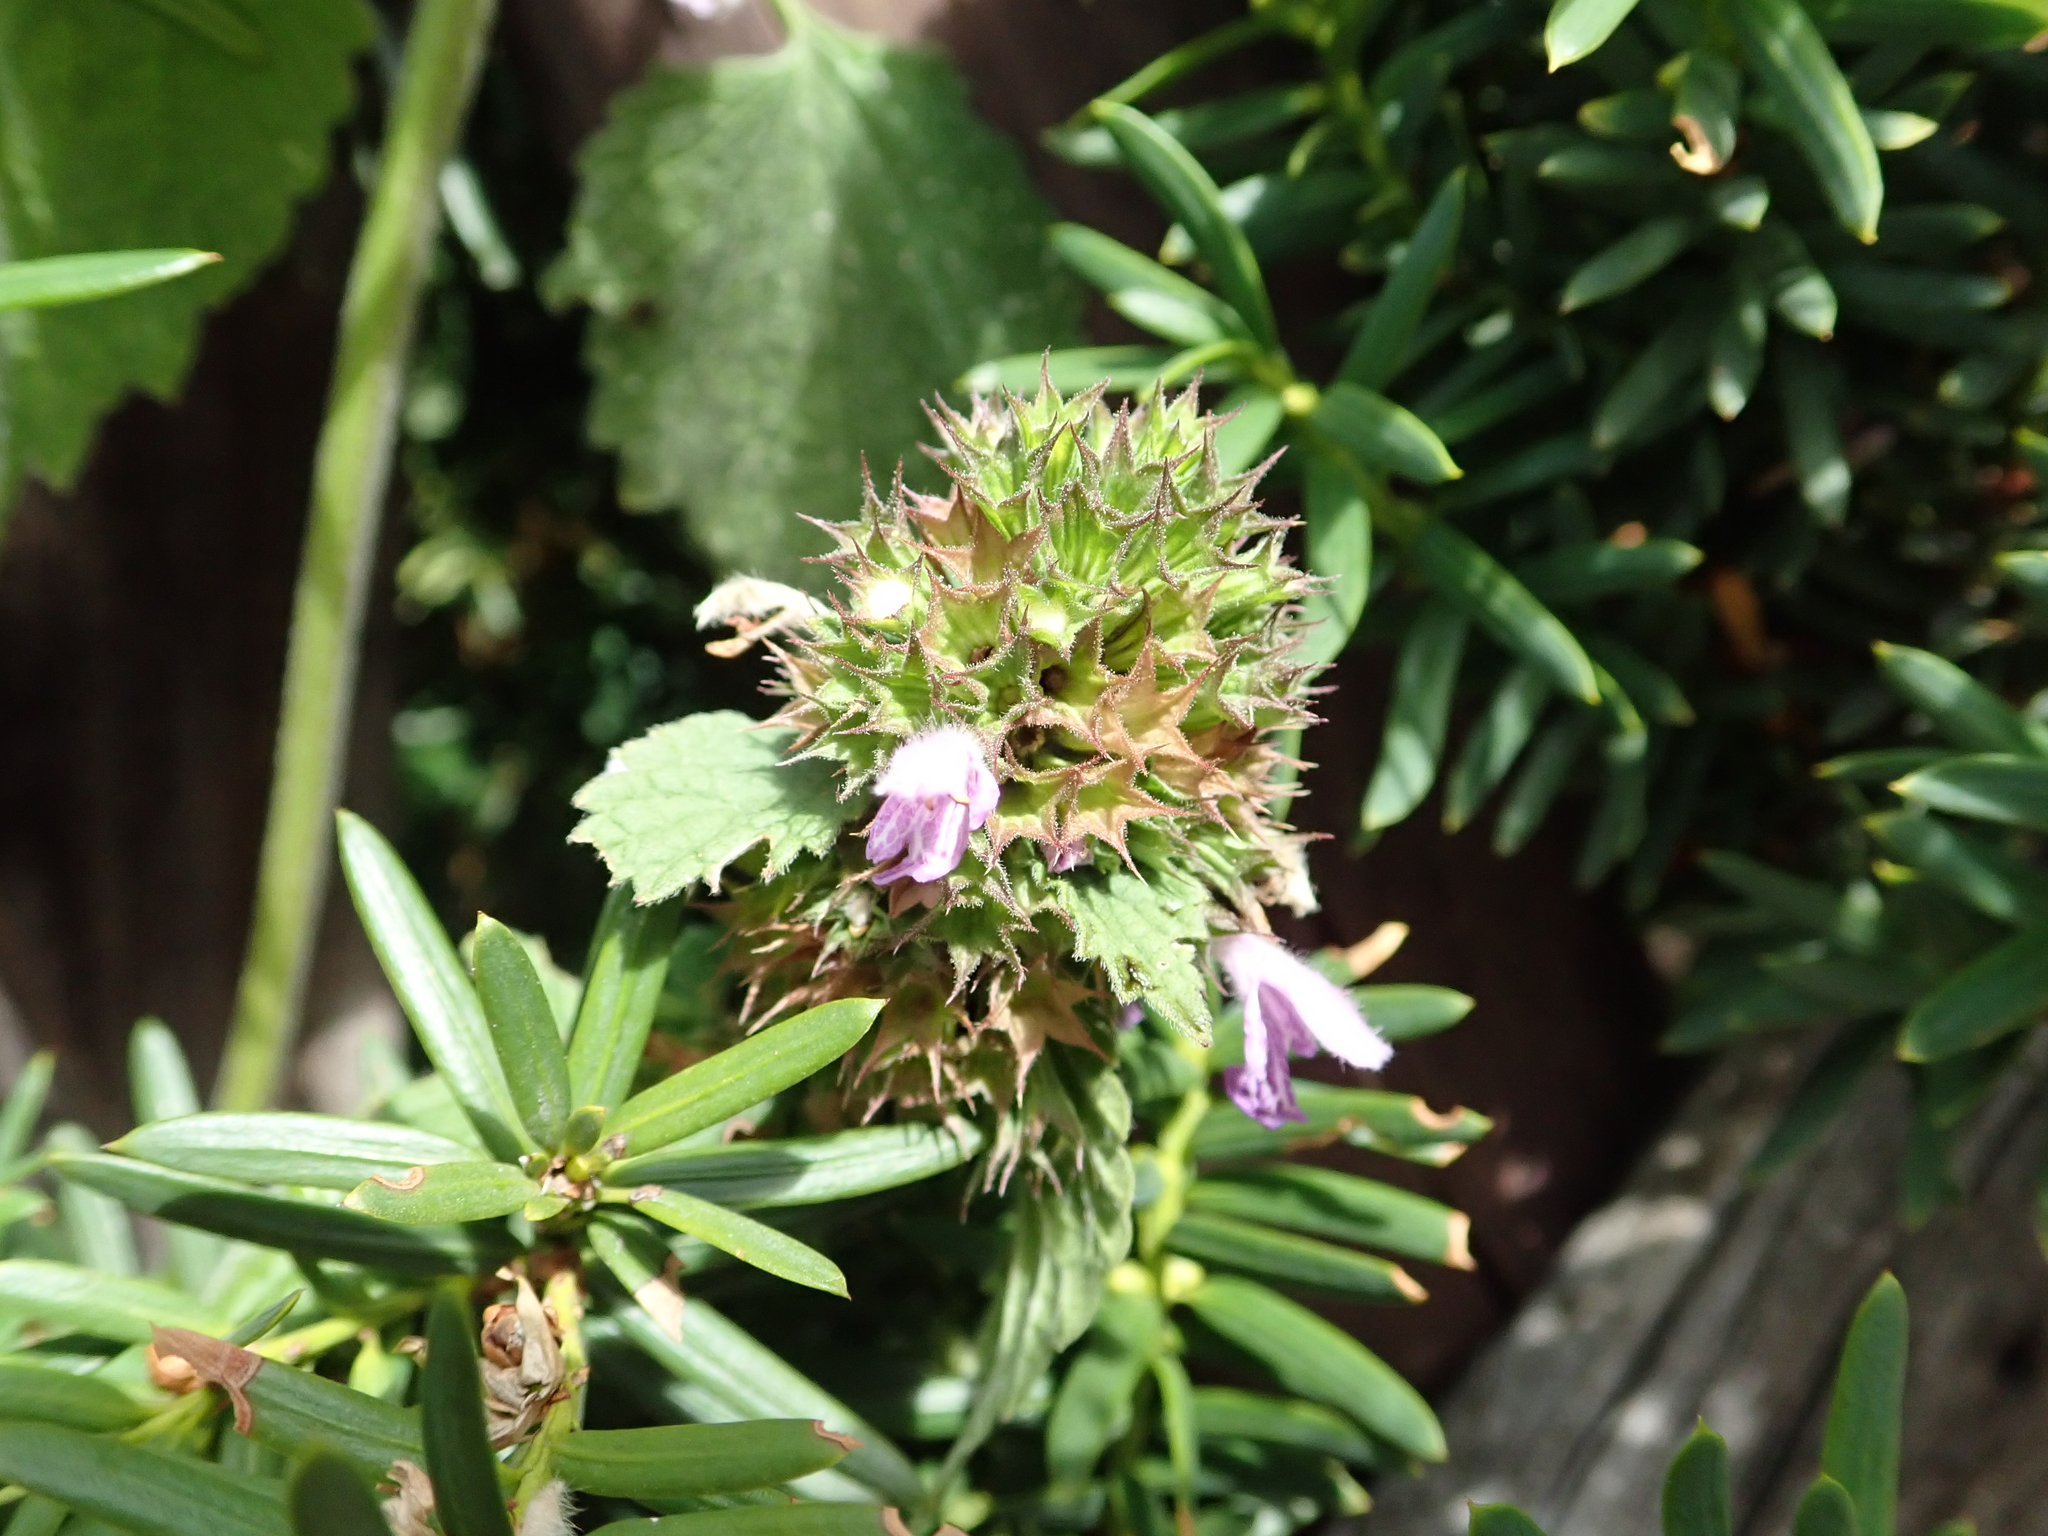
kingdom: Plantae
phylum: Tracheophyta
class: Magnoliopsida
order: Lamiales
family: Lamiaceae
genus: Ballota
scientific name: Ballota nigra
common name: Black horehound
